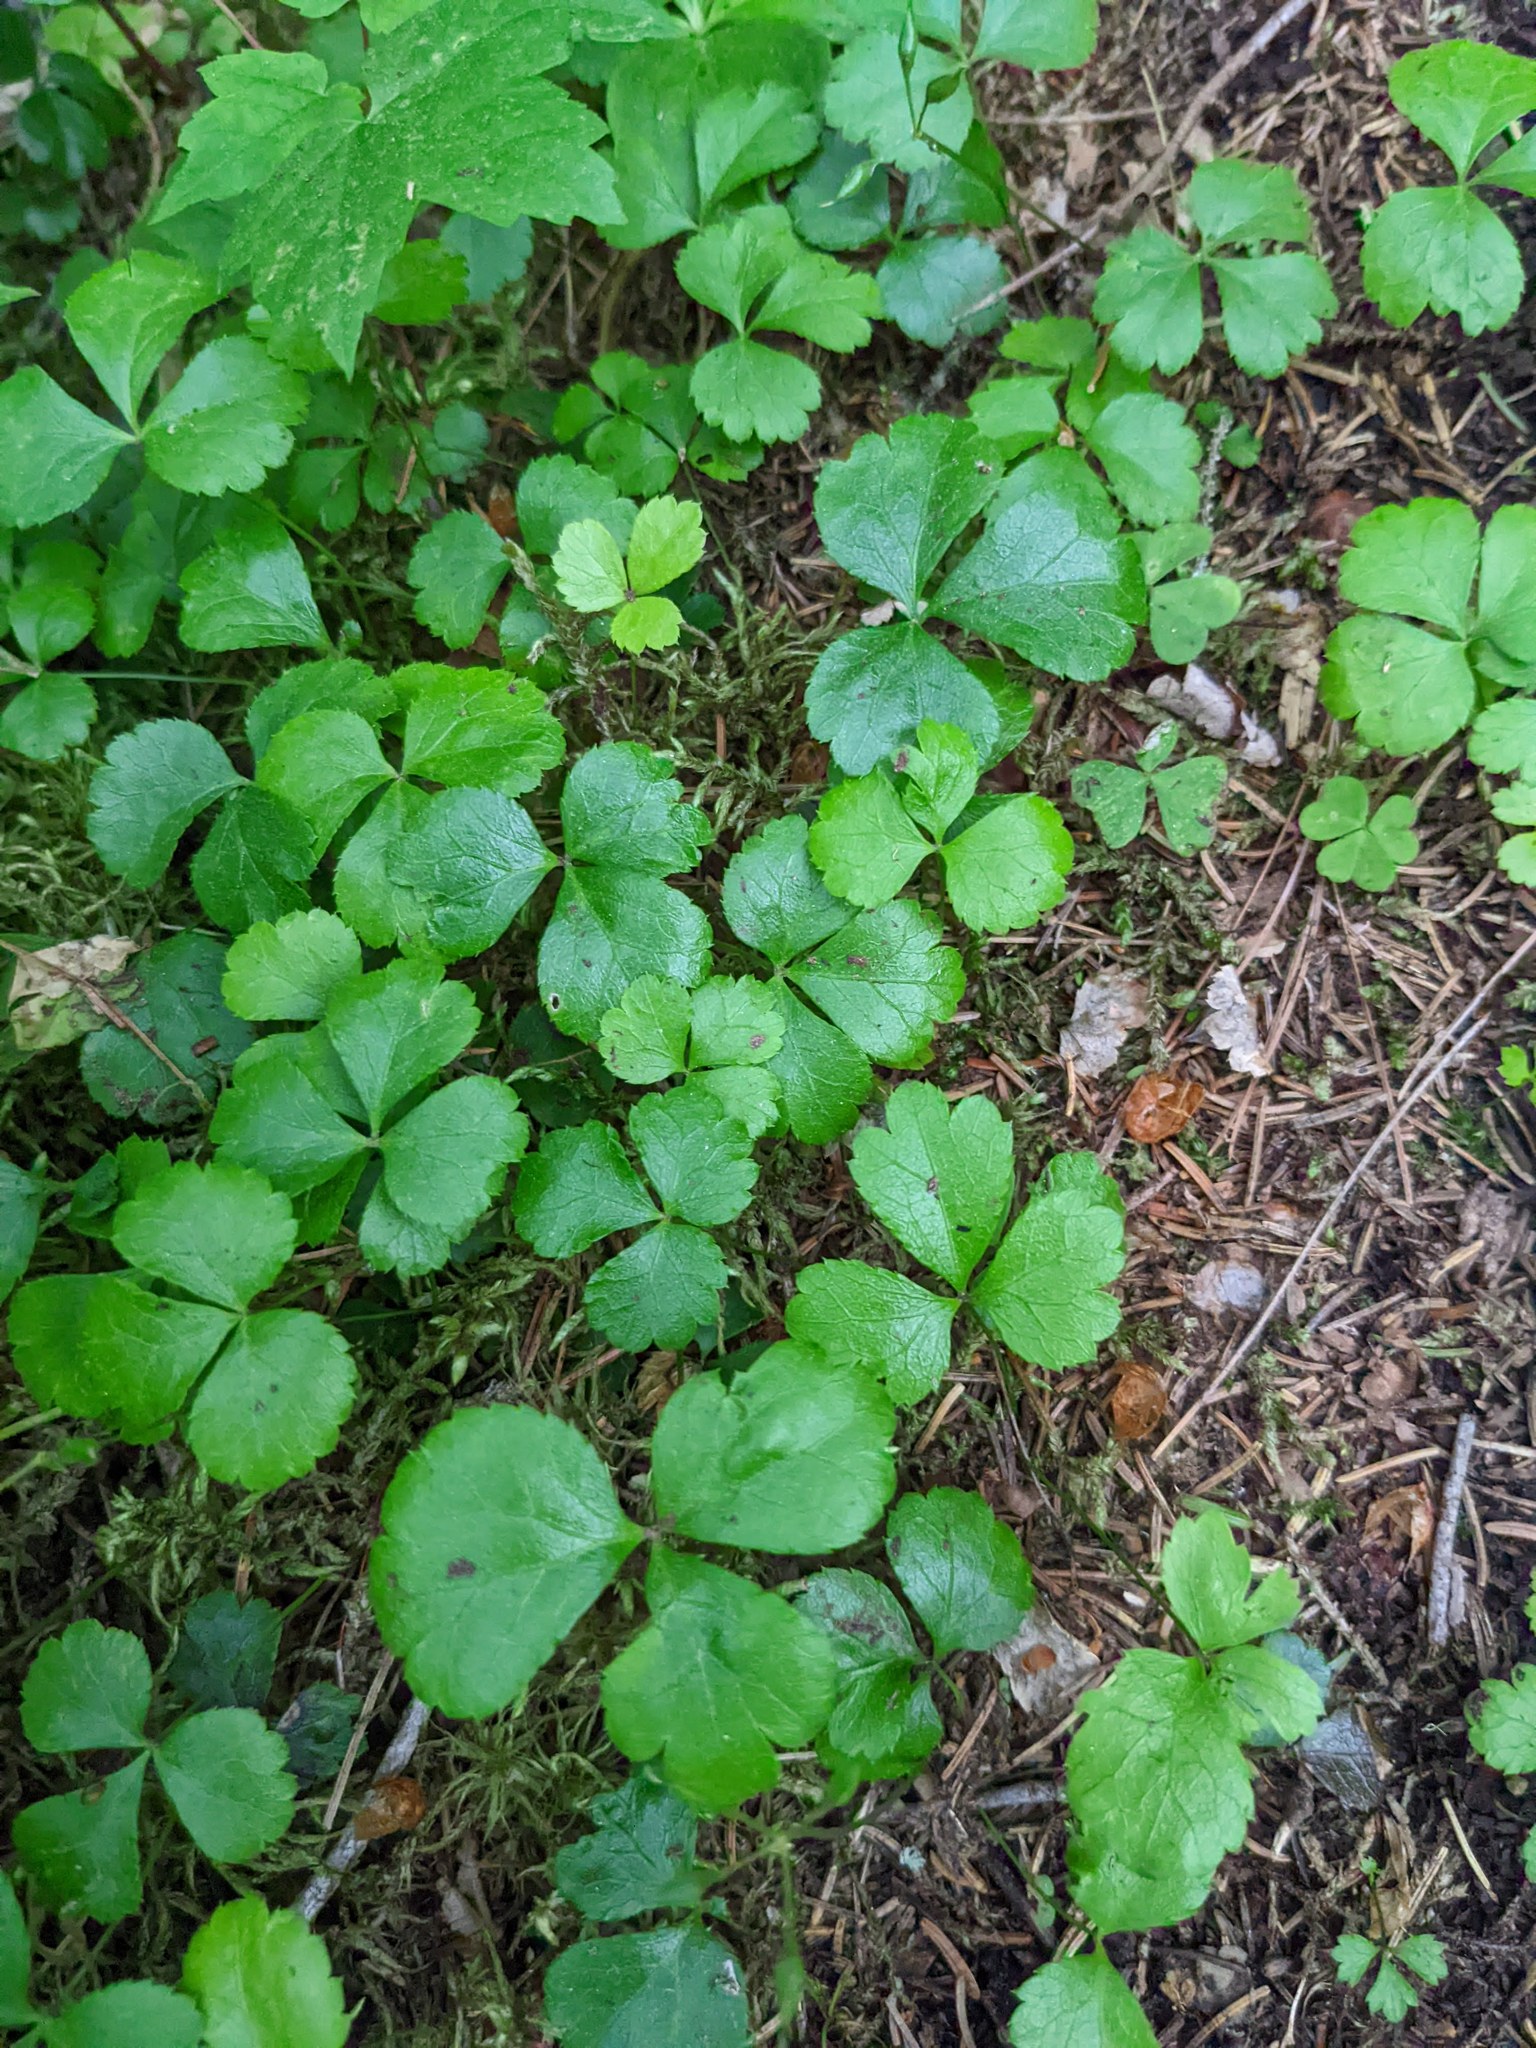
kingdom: Plantae
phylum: Tracheophyta
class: Magnoliopsida
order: Ranunculales
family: Ranunculaceae
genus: Coptis
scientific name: Coptis trifolia
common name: Canker-root
